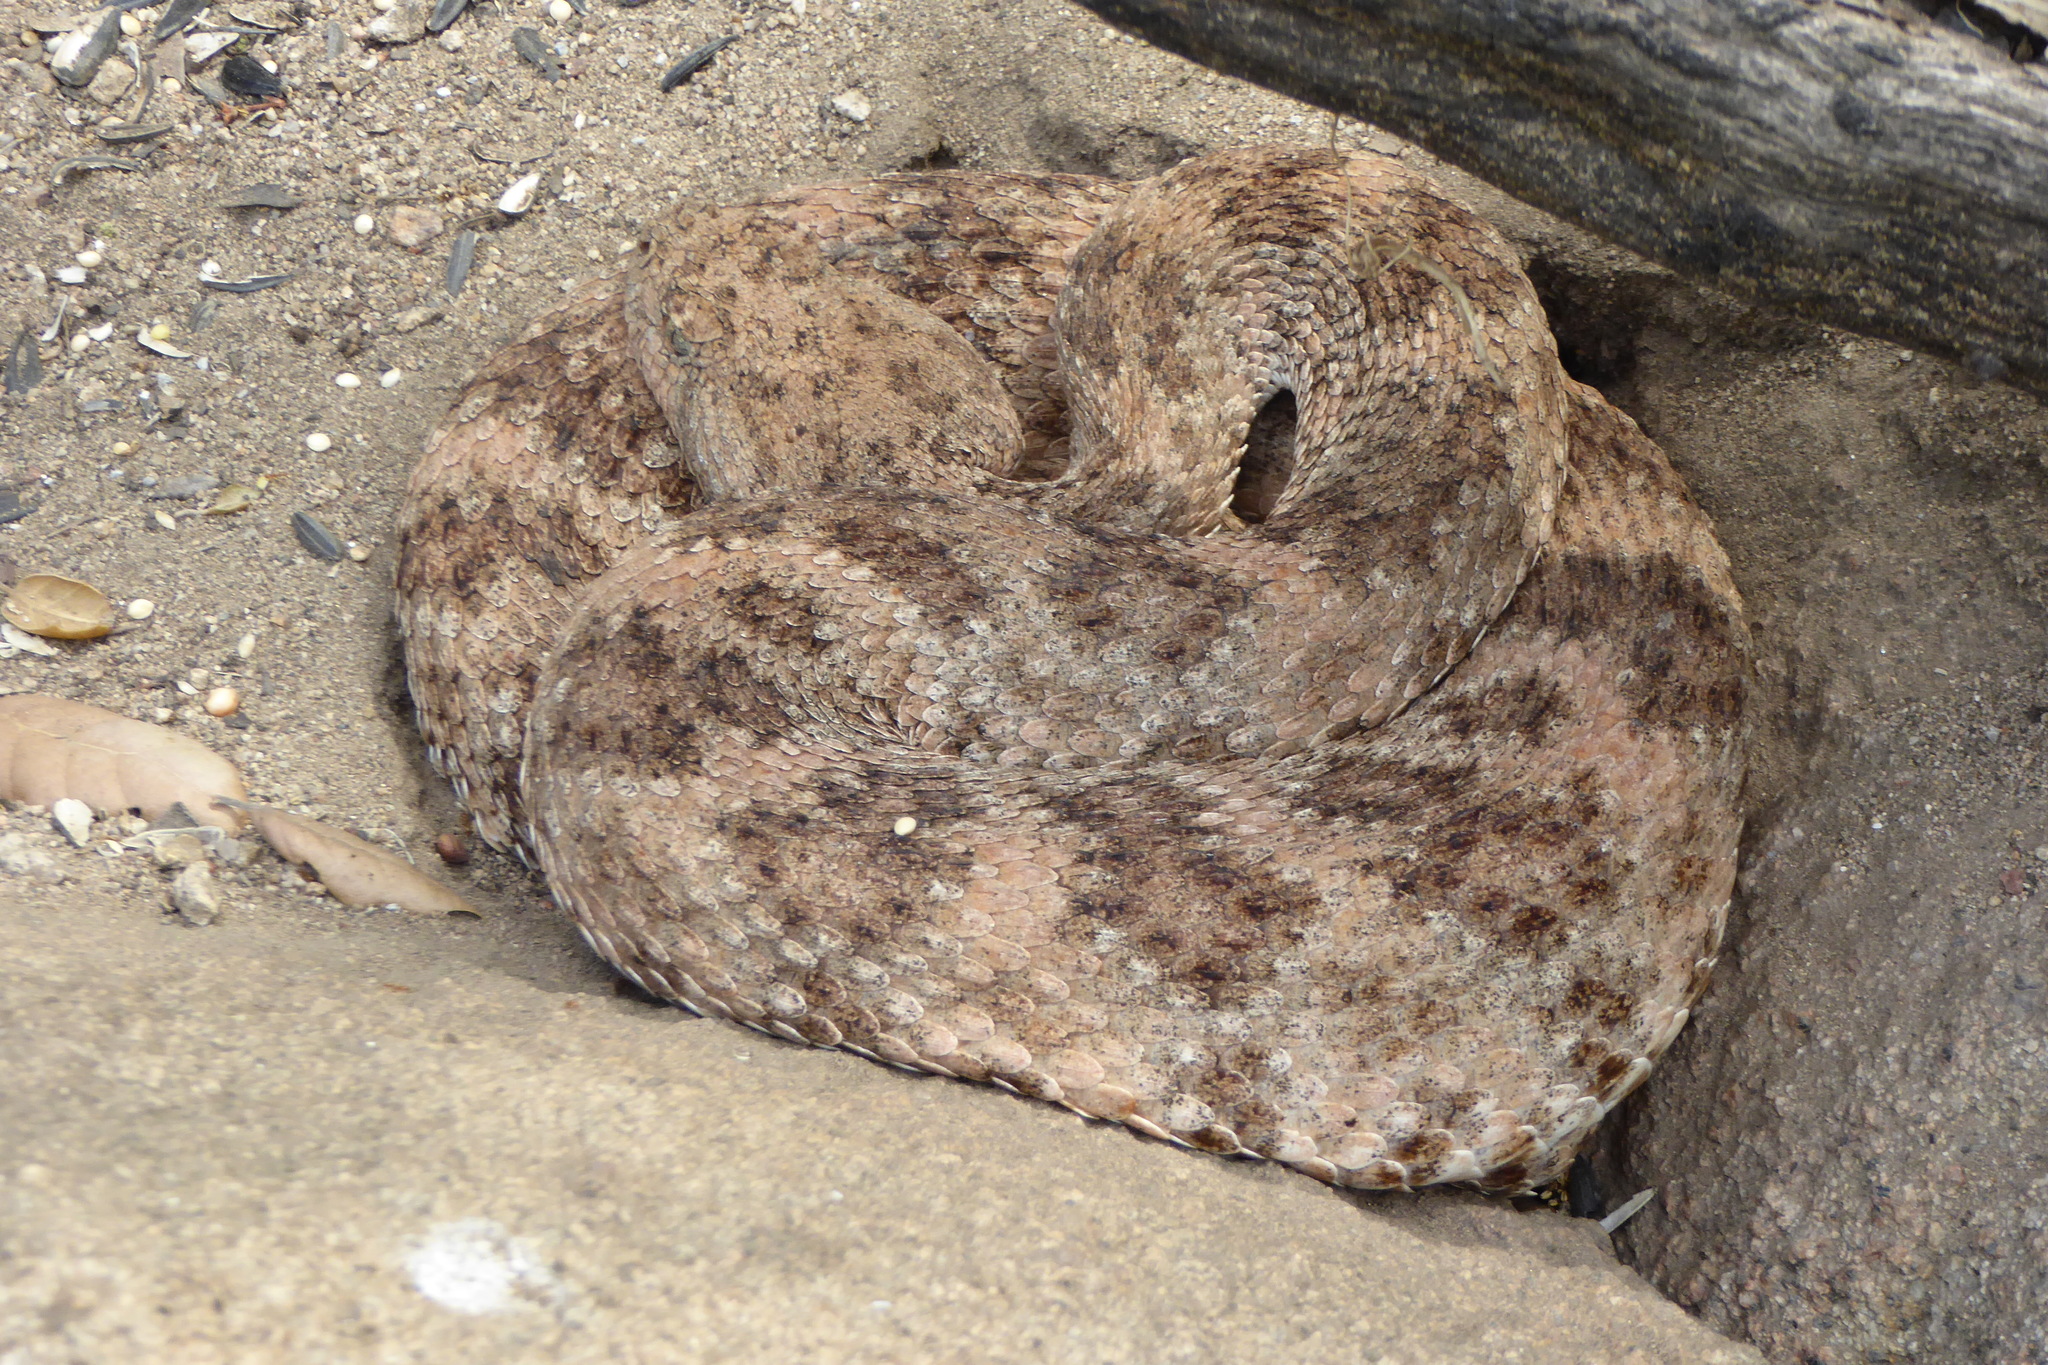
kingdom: Animalia
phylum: Chordata
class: Squamata
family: Viperidae
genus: Crotalus
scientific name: Crotalus pyrrhus
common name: Southwestern speckled rattlesnake
